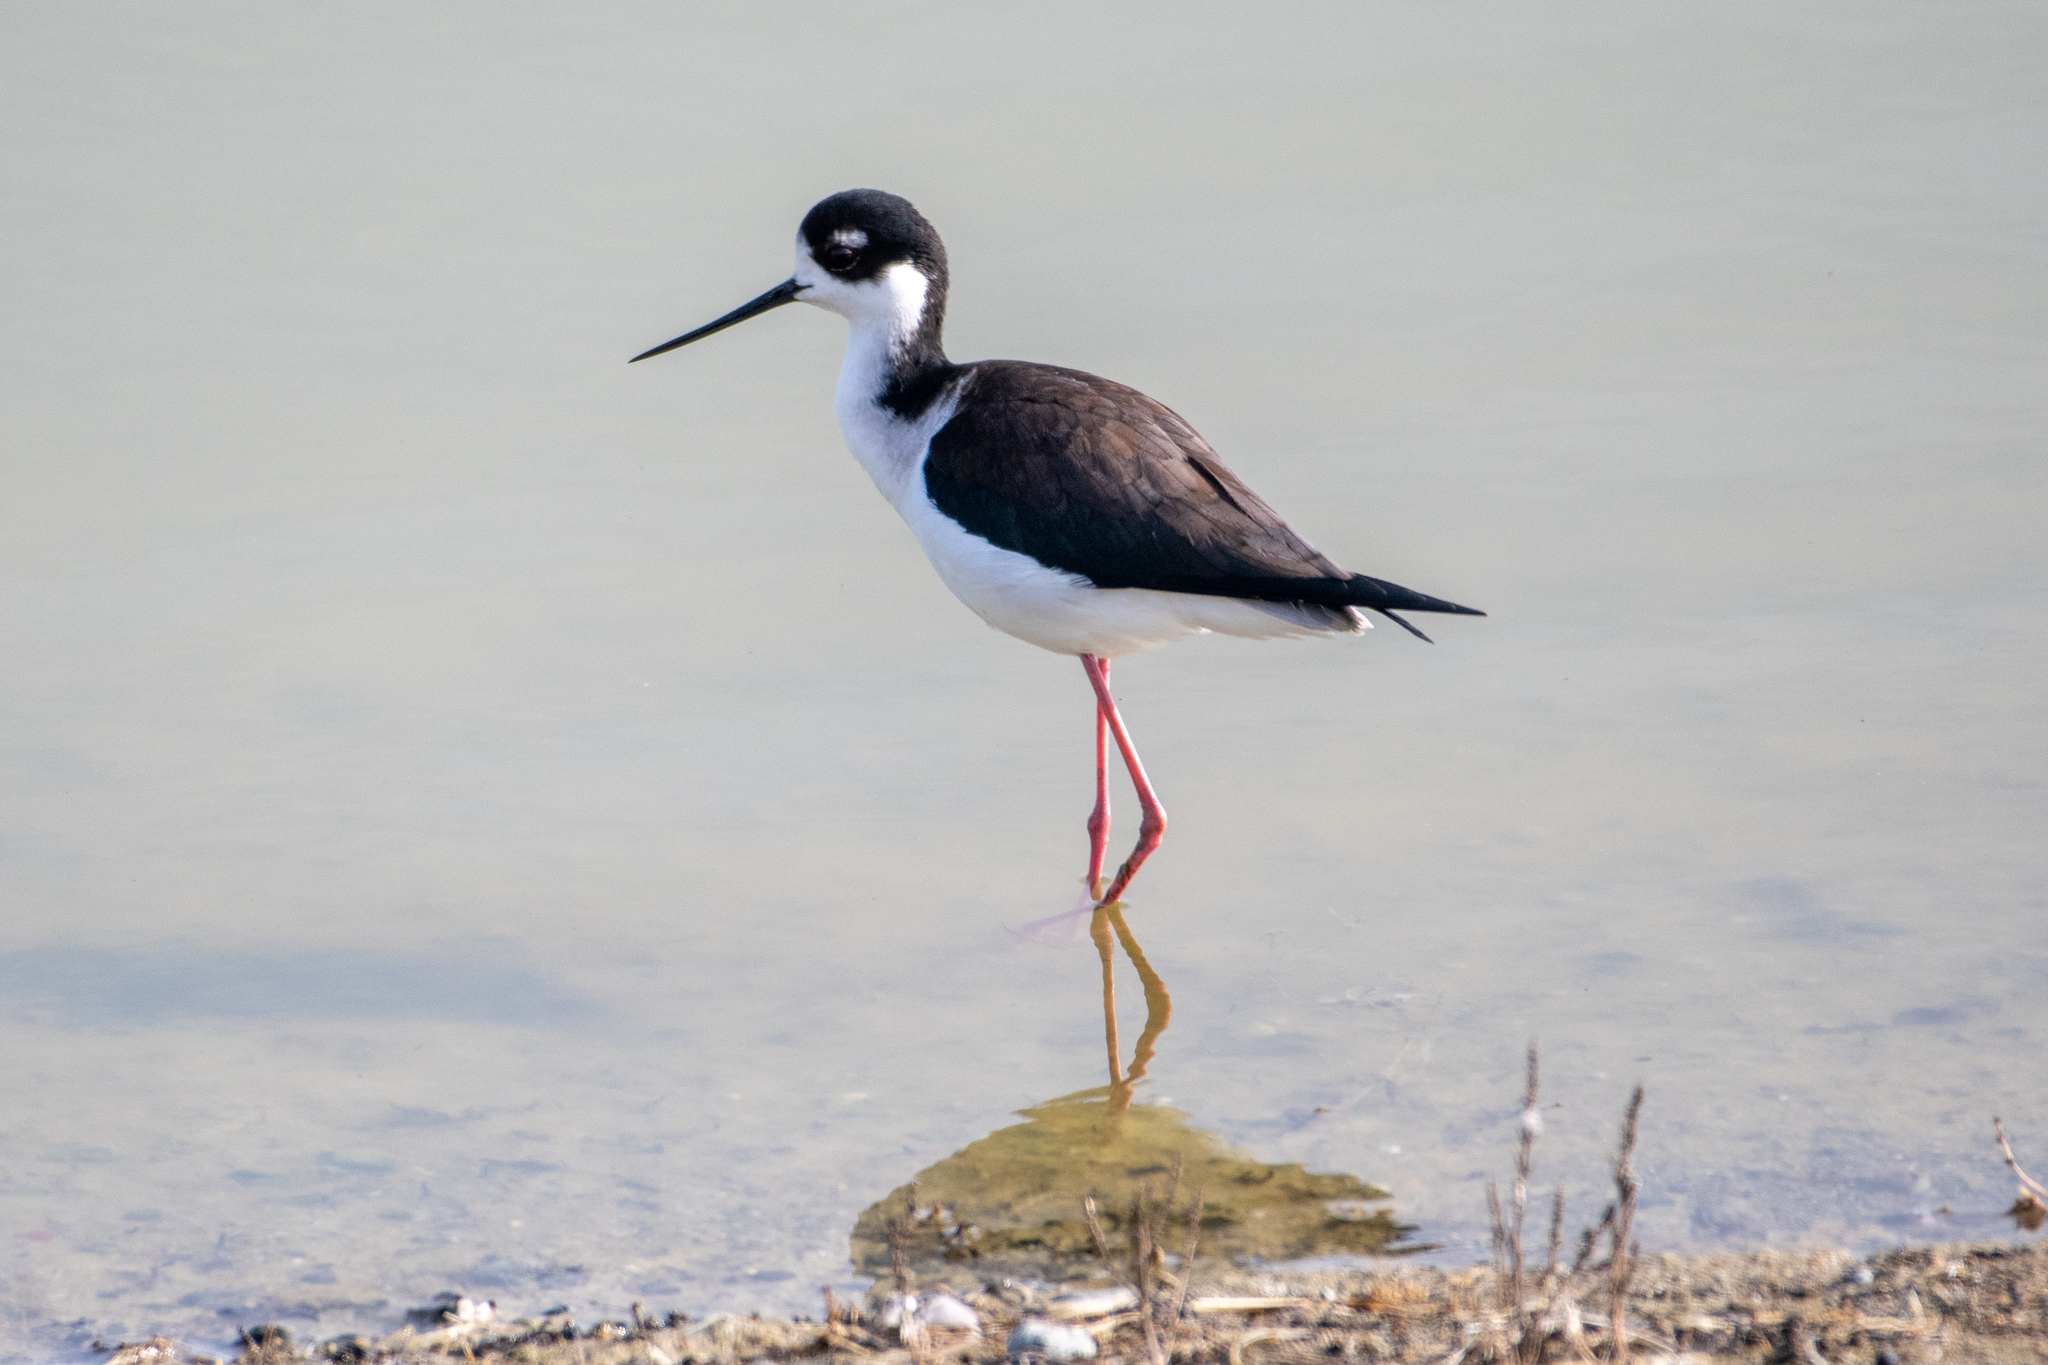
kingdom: Animalia
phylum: Chordata
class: Aves
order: Charadriiformes
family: Recurvirostridae
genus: Himantopus
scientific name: Himantopus mexicanus
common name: Black-necked stilt
